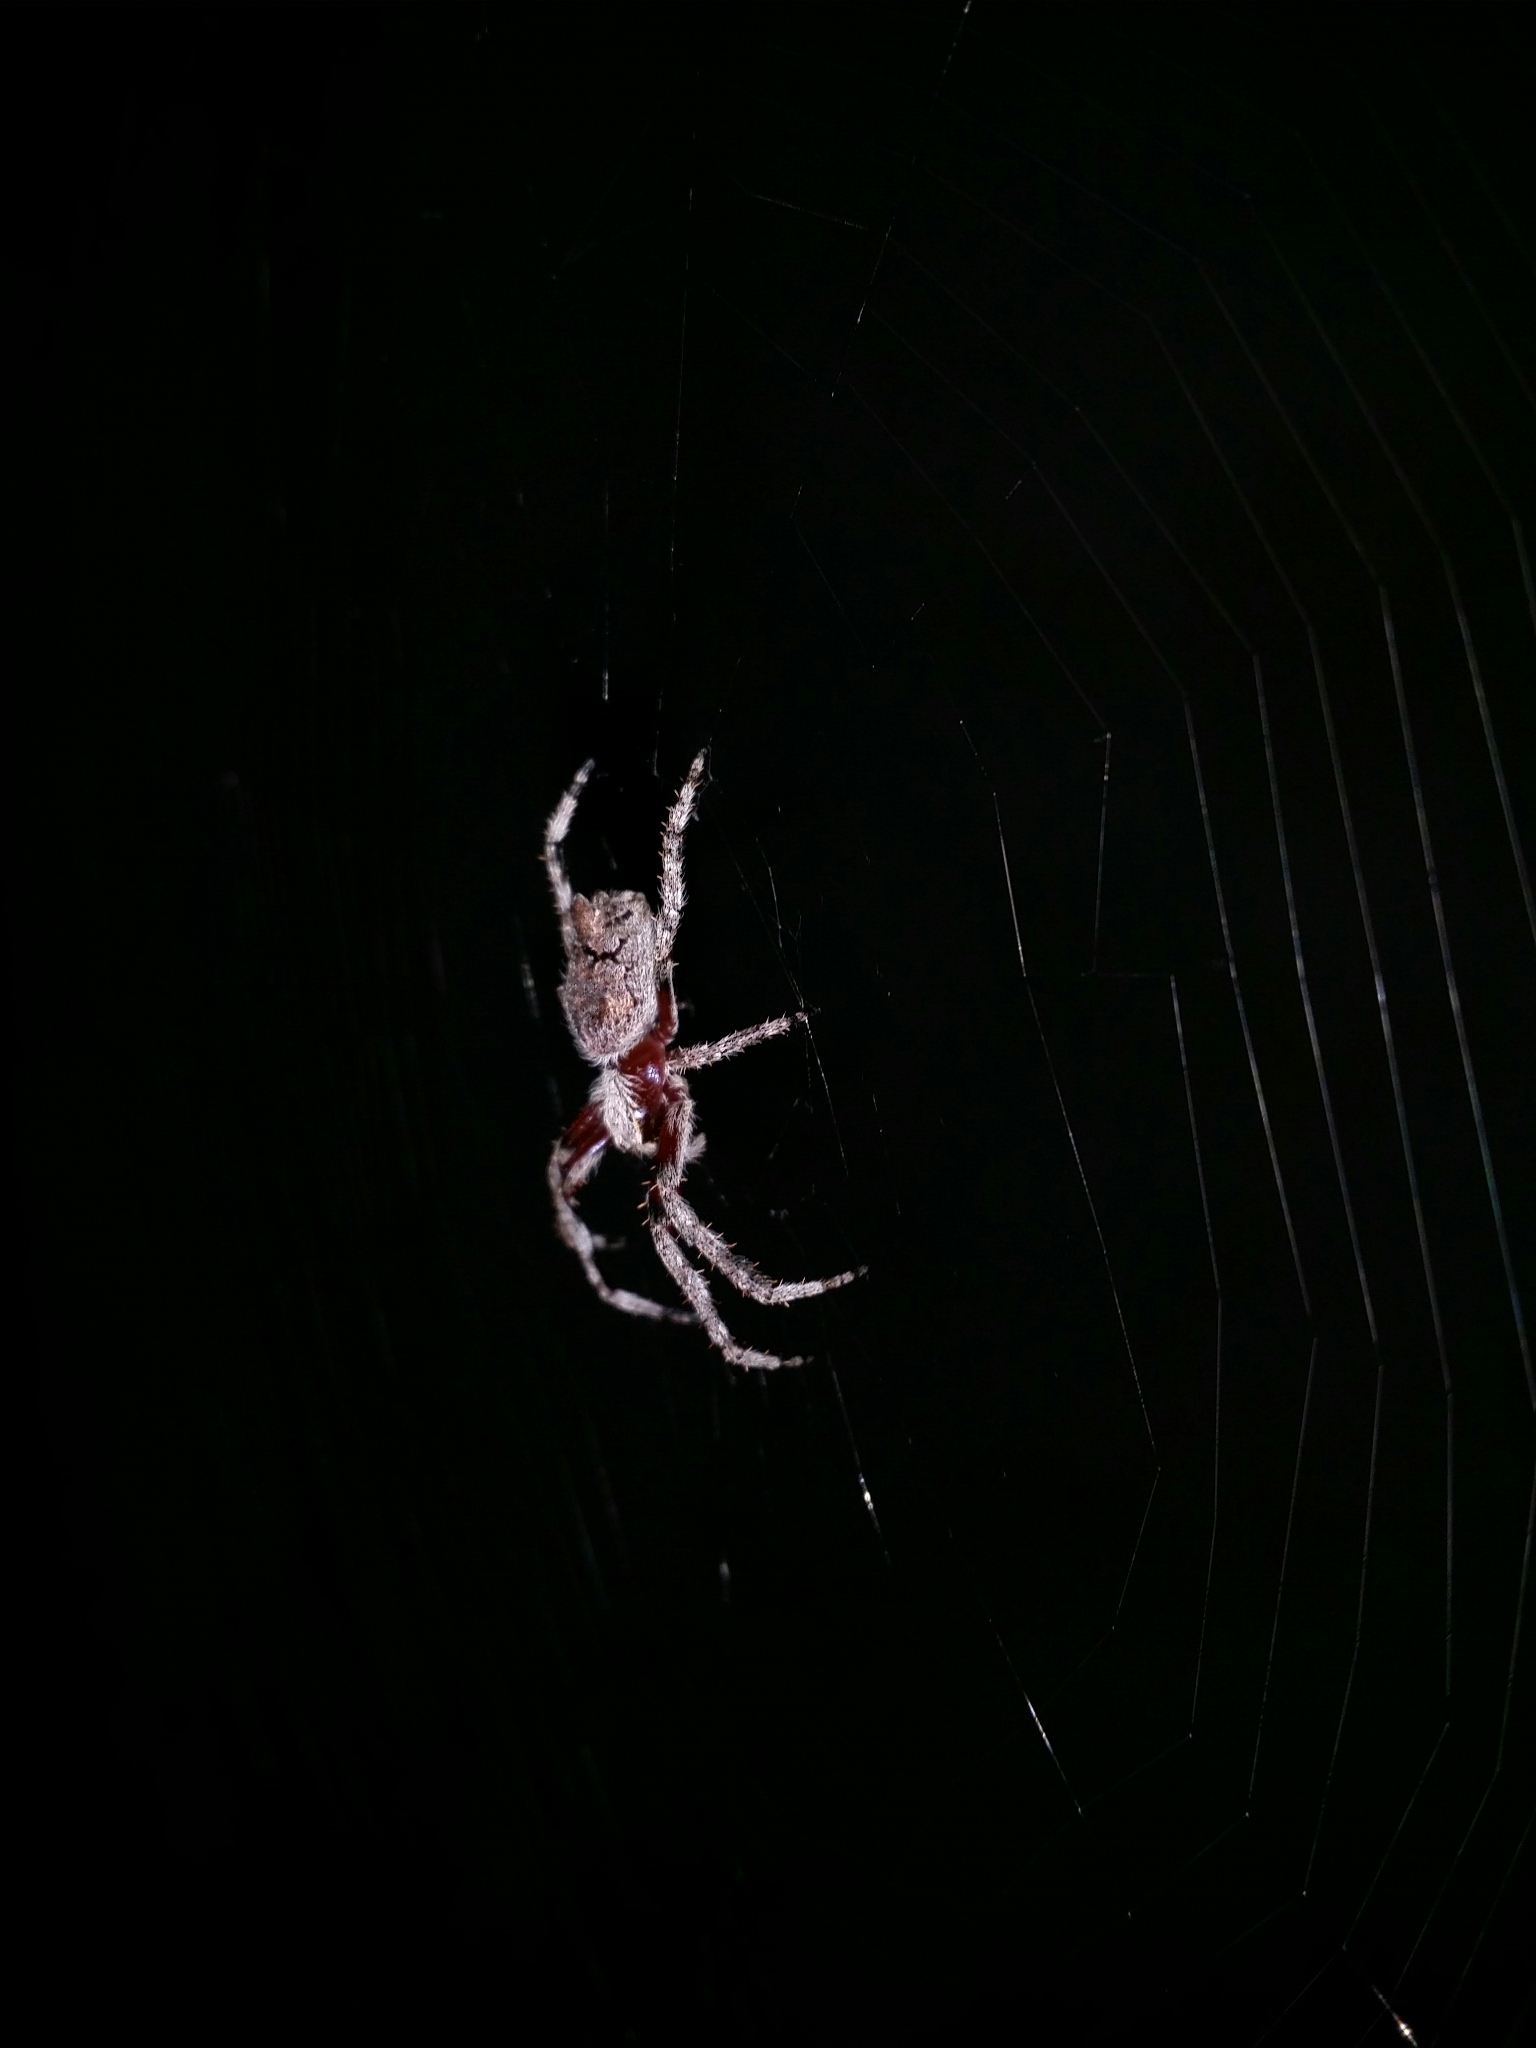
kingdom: Animalia
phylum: Arthropoda
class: Arachnida
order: Araneae
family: Araneidae
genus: Hortophora
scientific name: Hortophora biapicata
